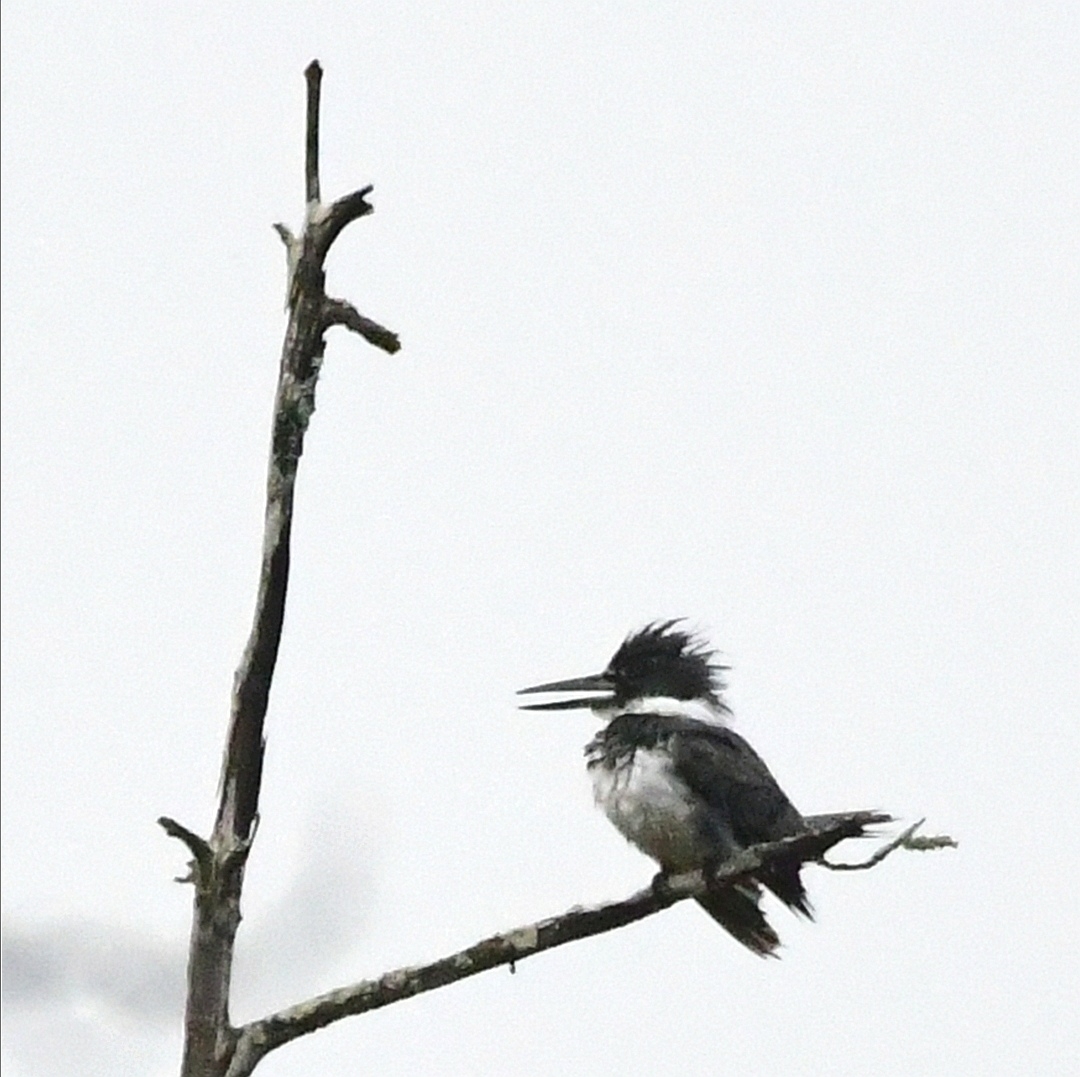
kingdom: Animalia
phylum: Chordata
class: Aves
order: Coraciiformes
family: Alcedinidae
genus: Megaceryle
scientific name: Megaceryle alcyon
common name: Belted kingfisher
